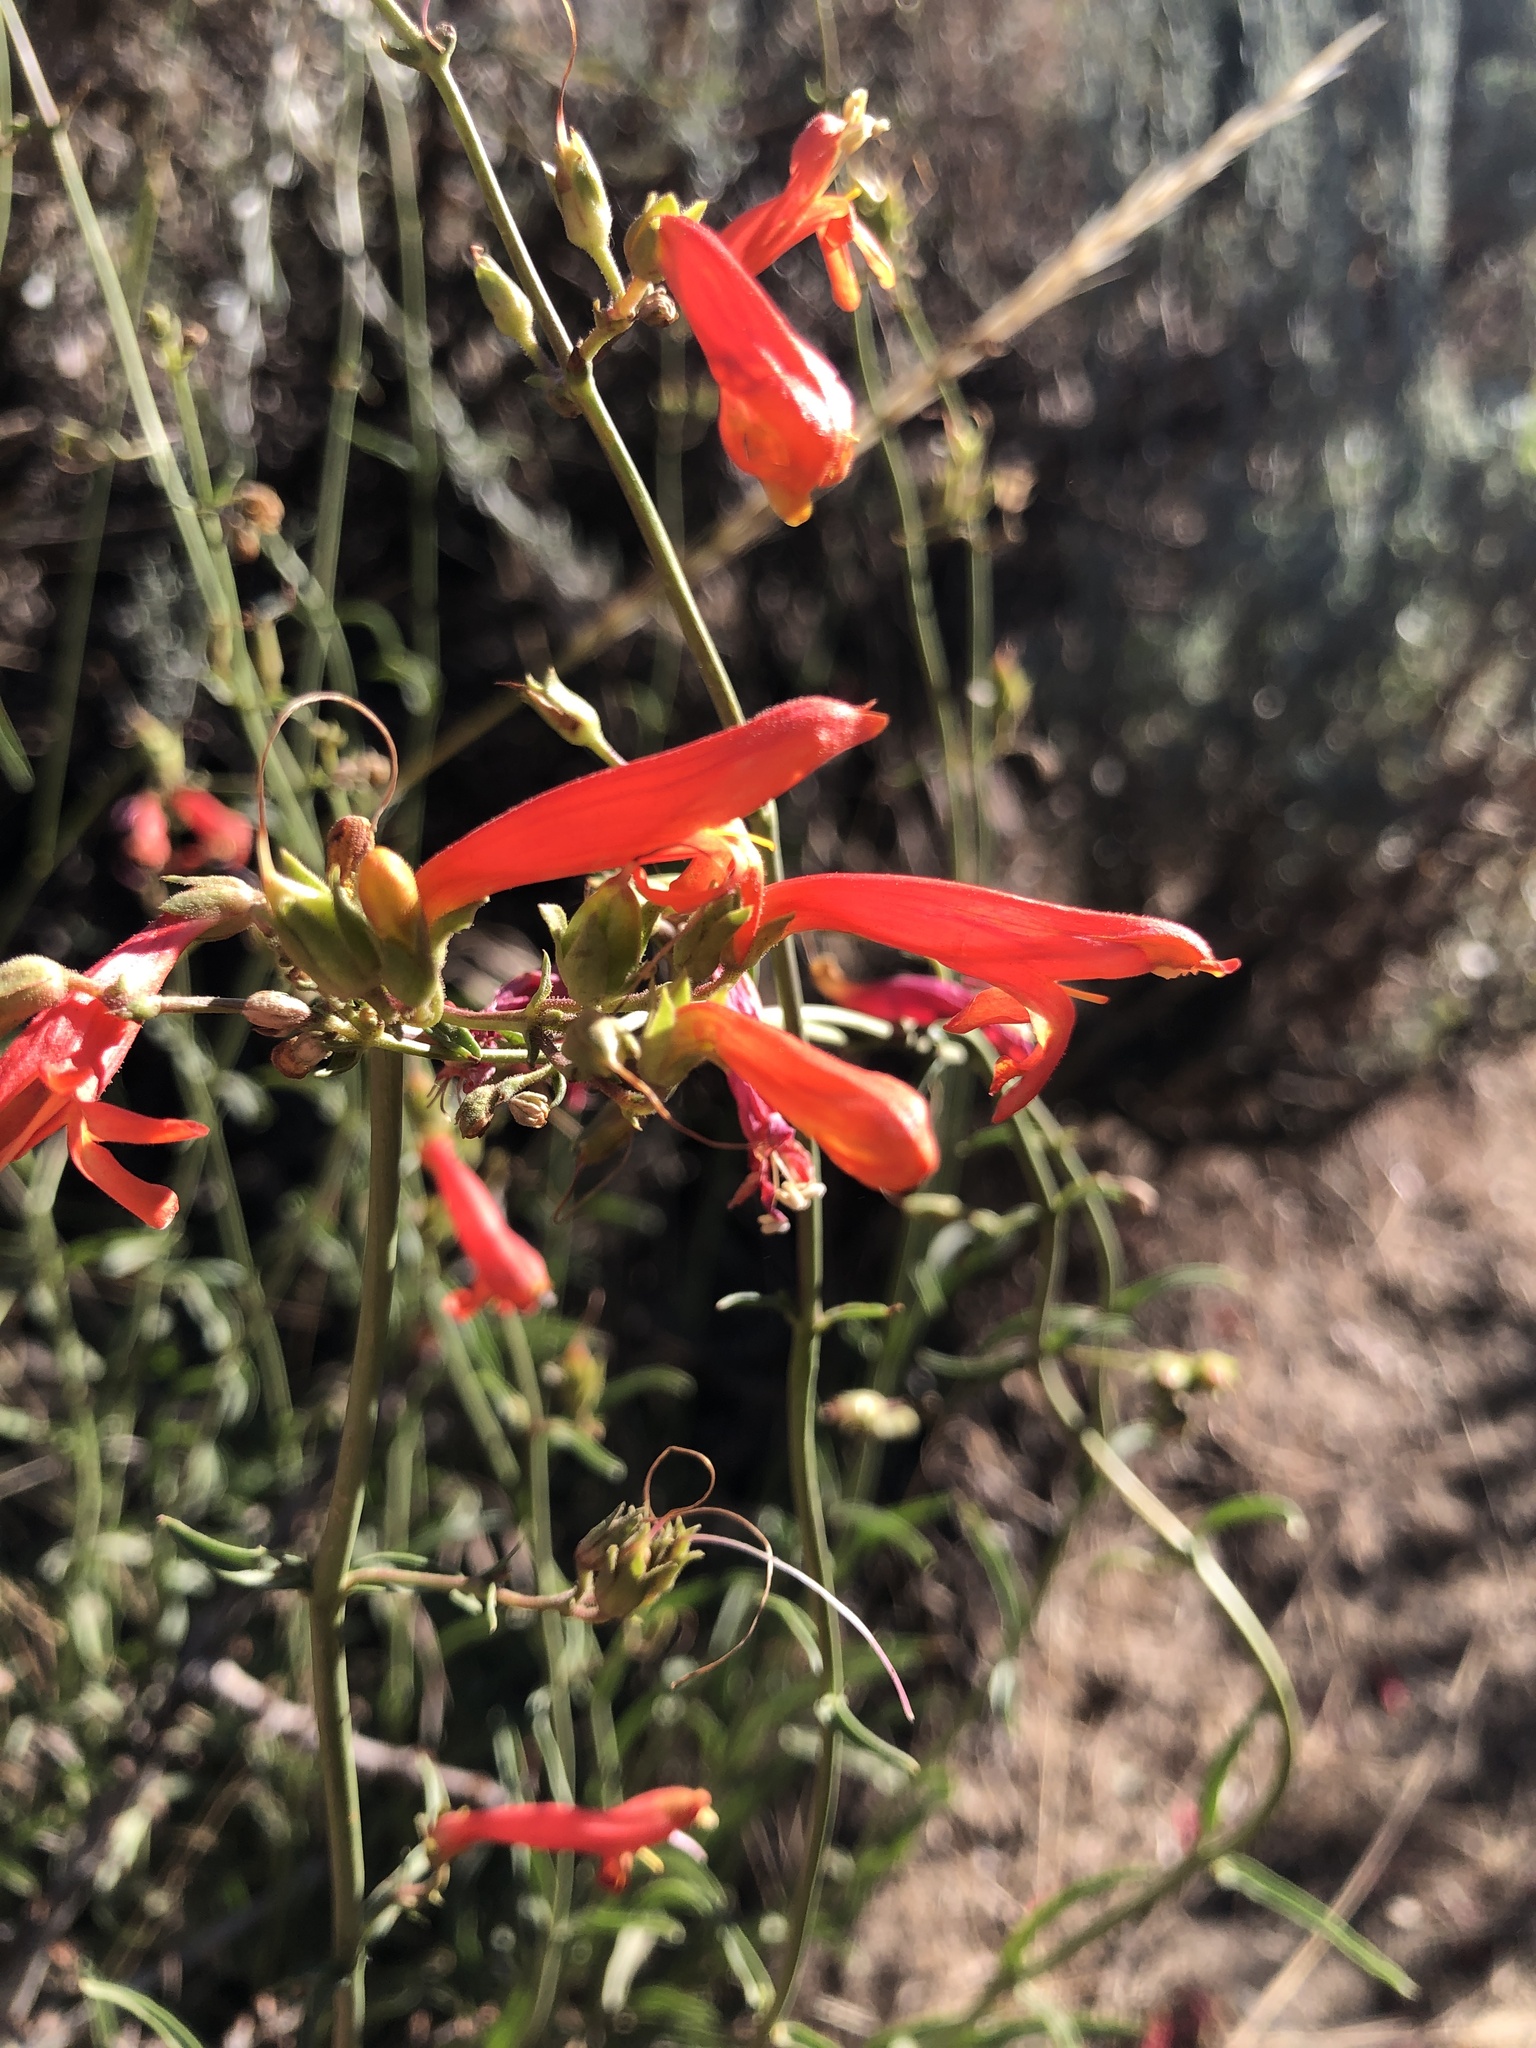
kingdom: Plantae
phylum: Tracheophyta
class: Magnoliopsida
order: Lamiales
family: Plantaginaceae
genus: Penstemon
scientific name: Penstemon rostriflorus
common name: Bridges's penstemon
